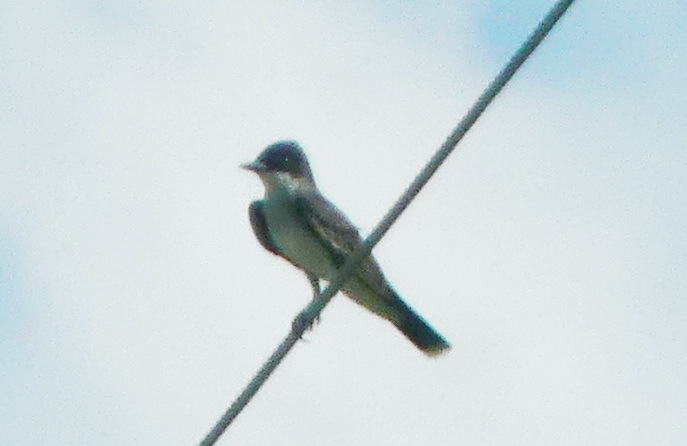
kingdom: Animalia
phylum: Chordata
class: Aves
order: Passeriformes
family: Tyrannidae
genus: Tyrannus
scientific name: Tyrannus tyrannus
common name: Eastern kingbird
